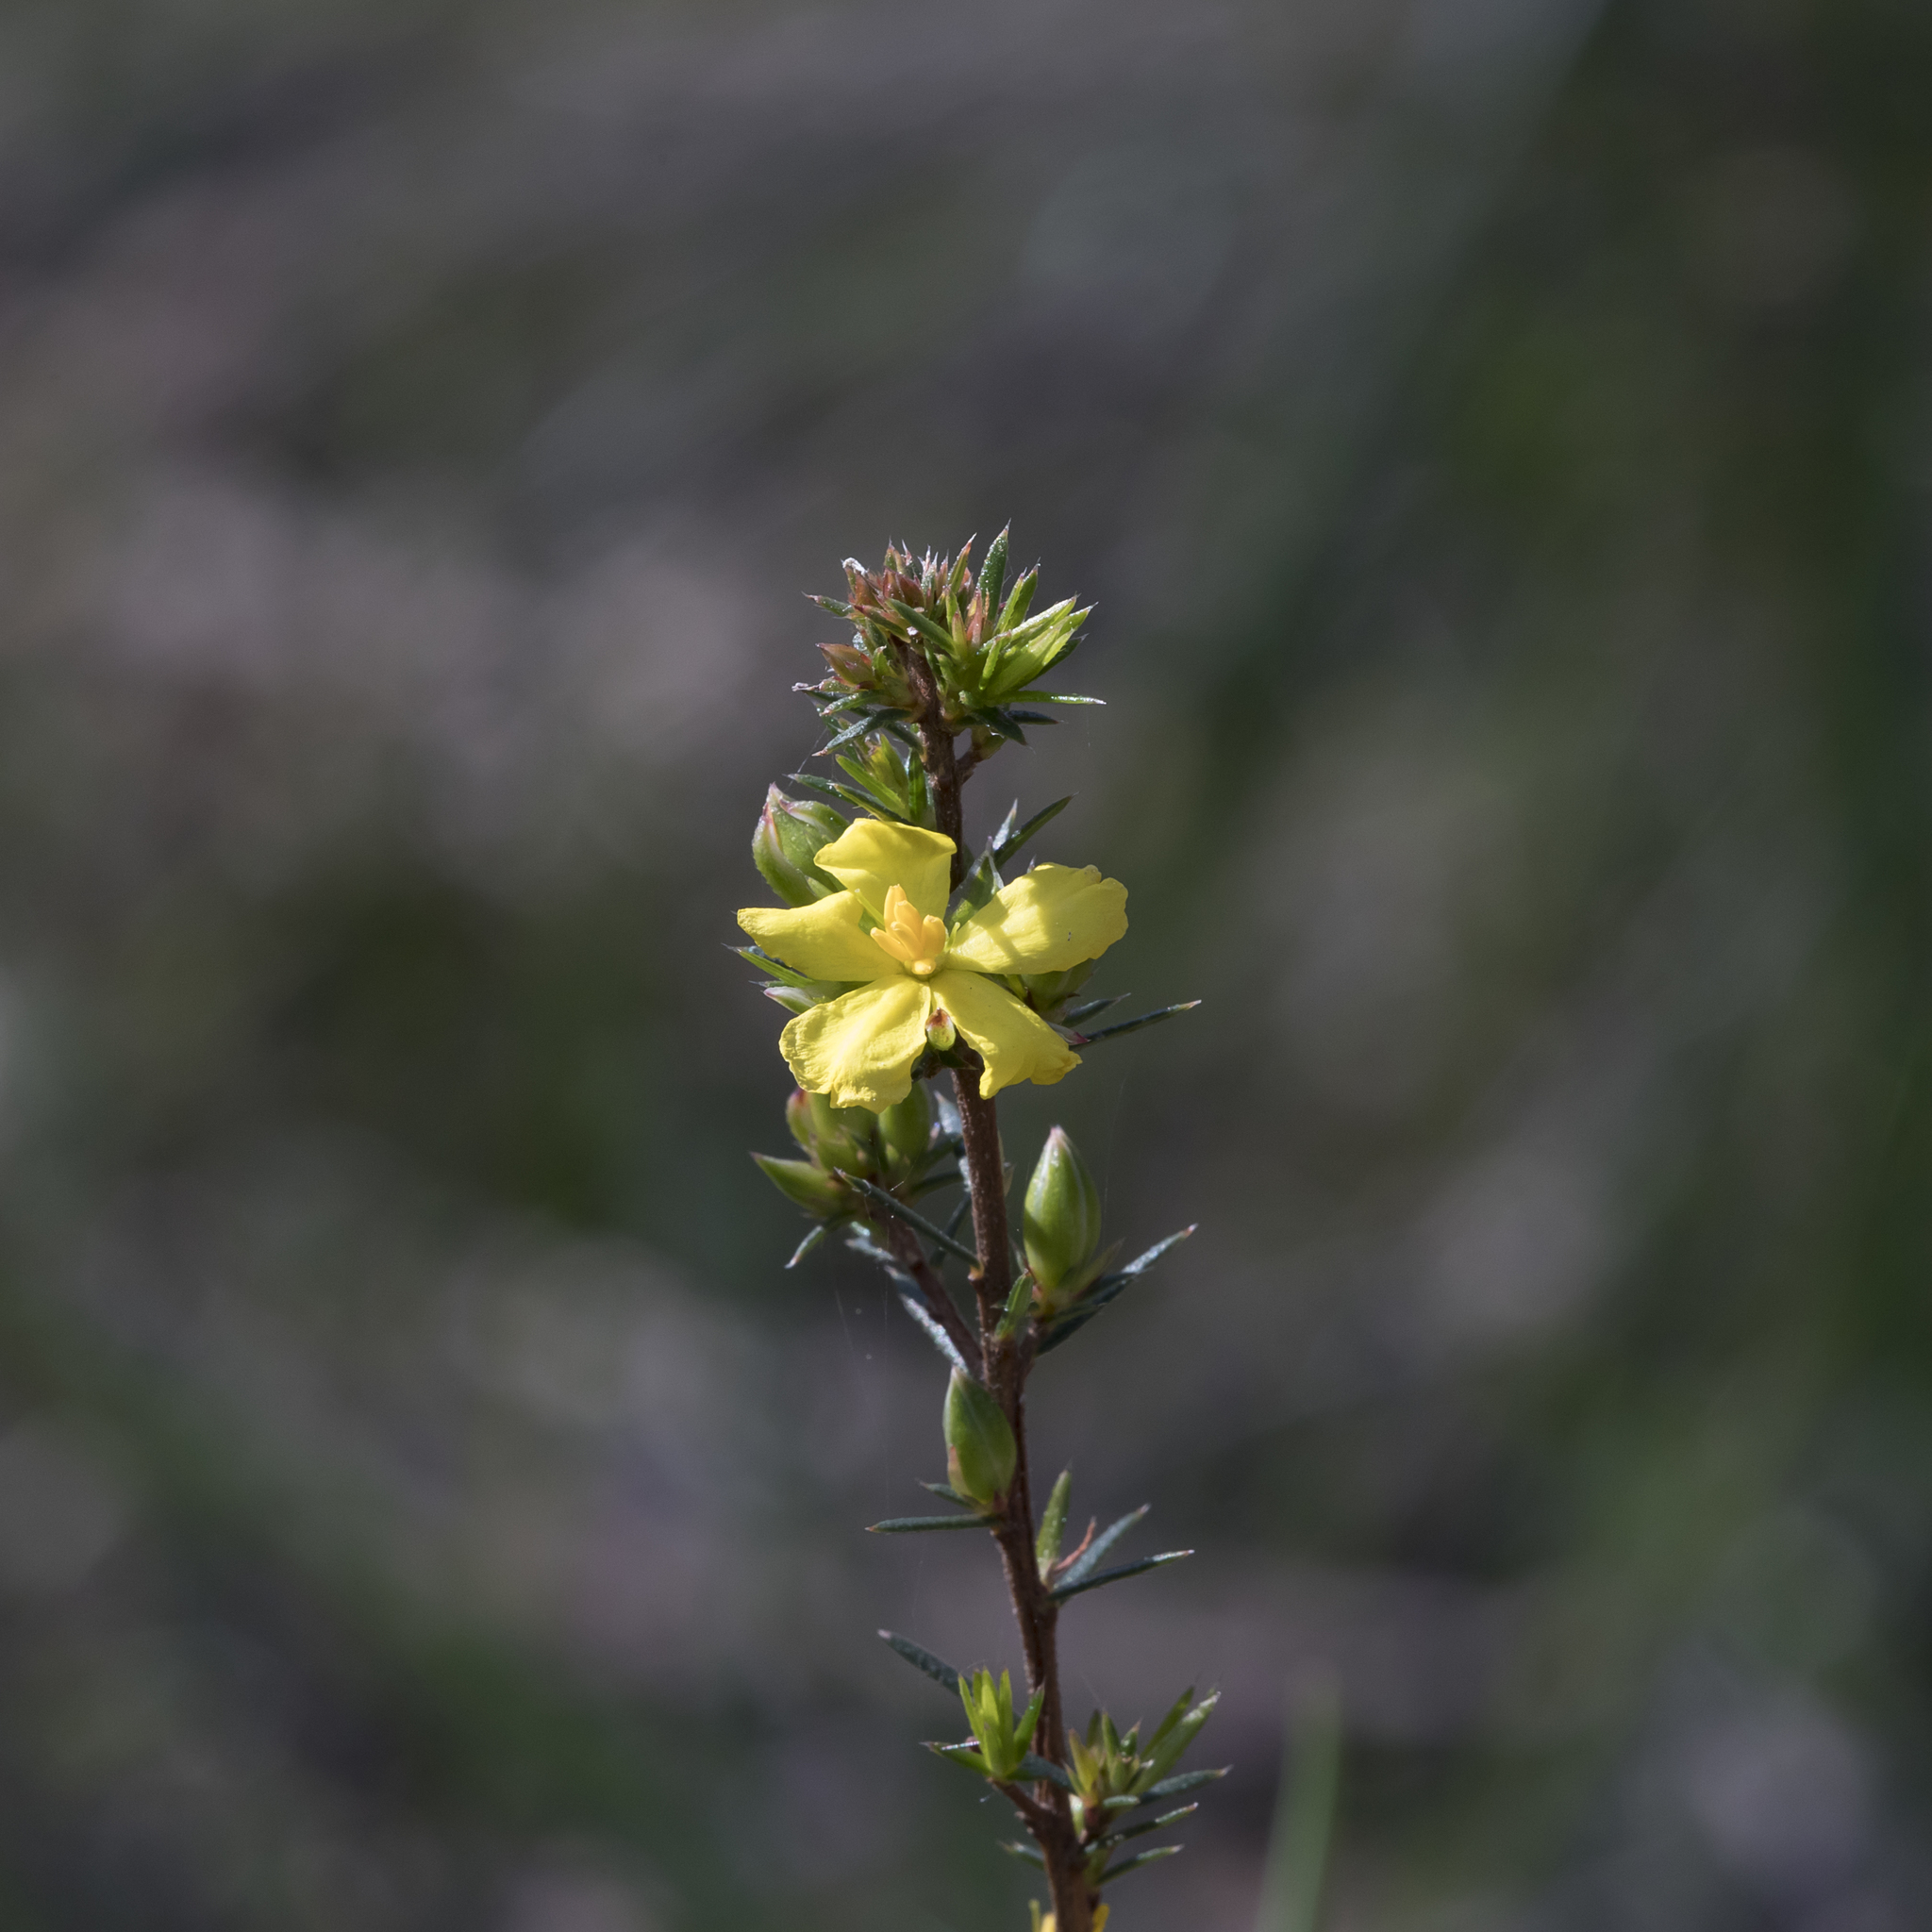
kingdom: Plantae
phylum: Tracheophyta
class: Magnoliopsida
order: Dilleniales
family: Dilleniaceae
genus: Hibbertia
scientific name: Hibbertia exutiacies
